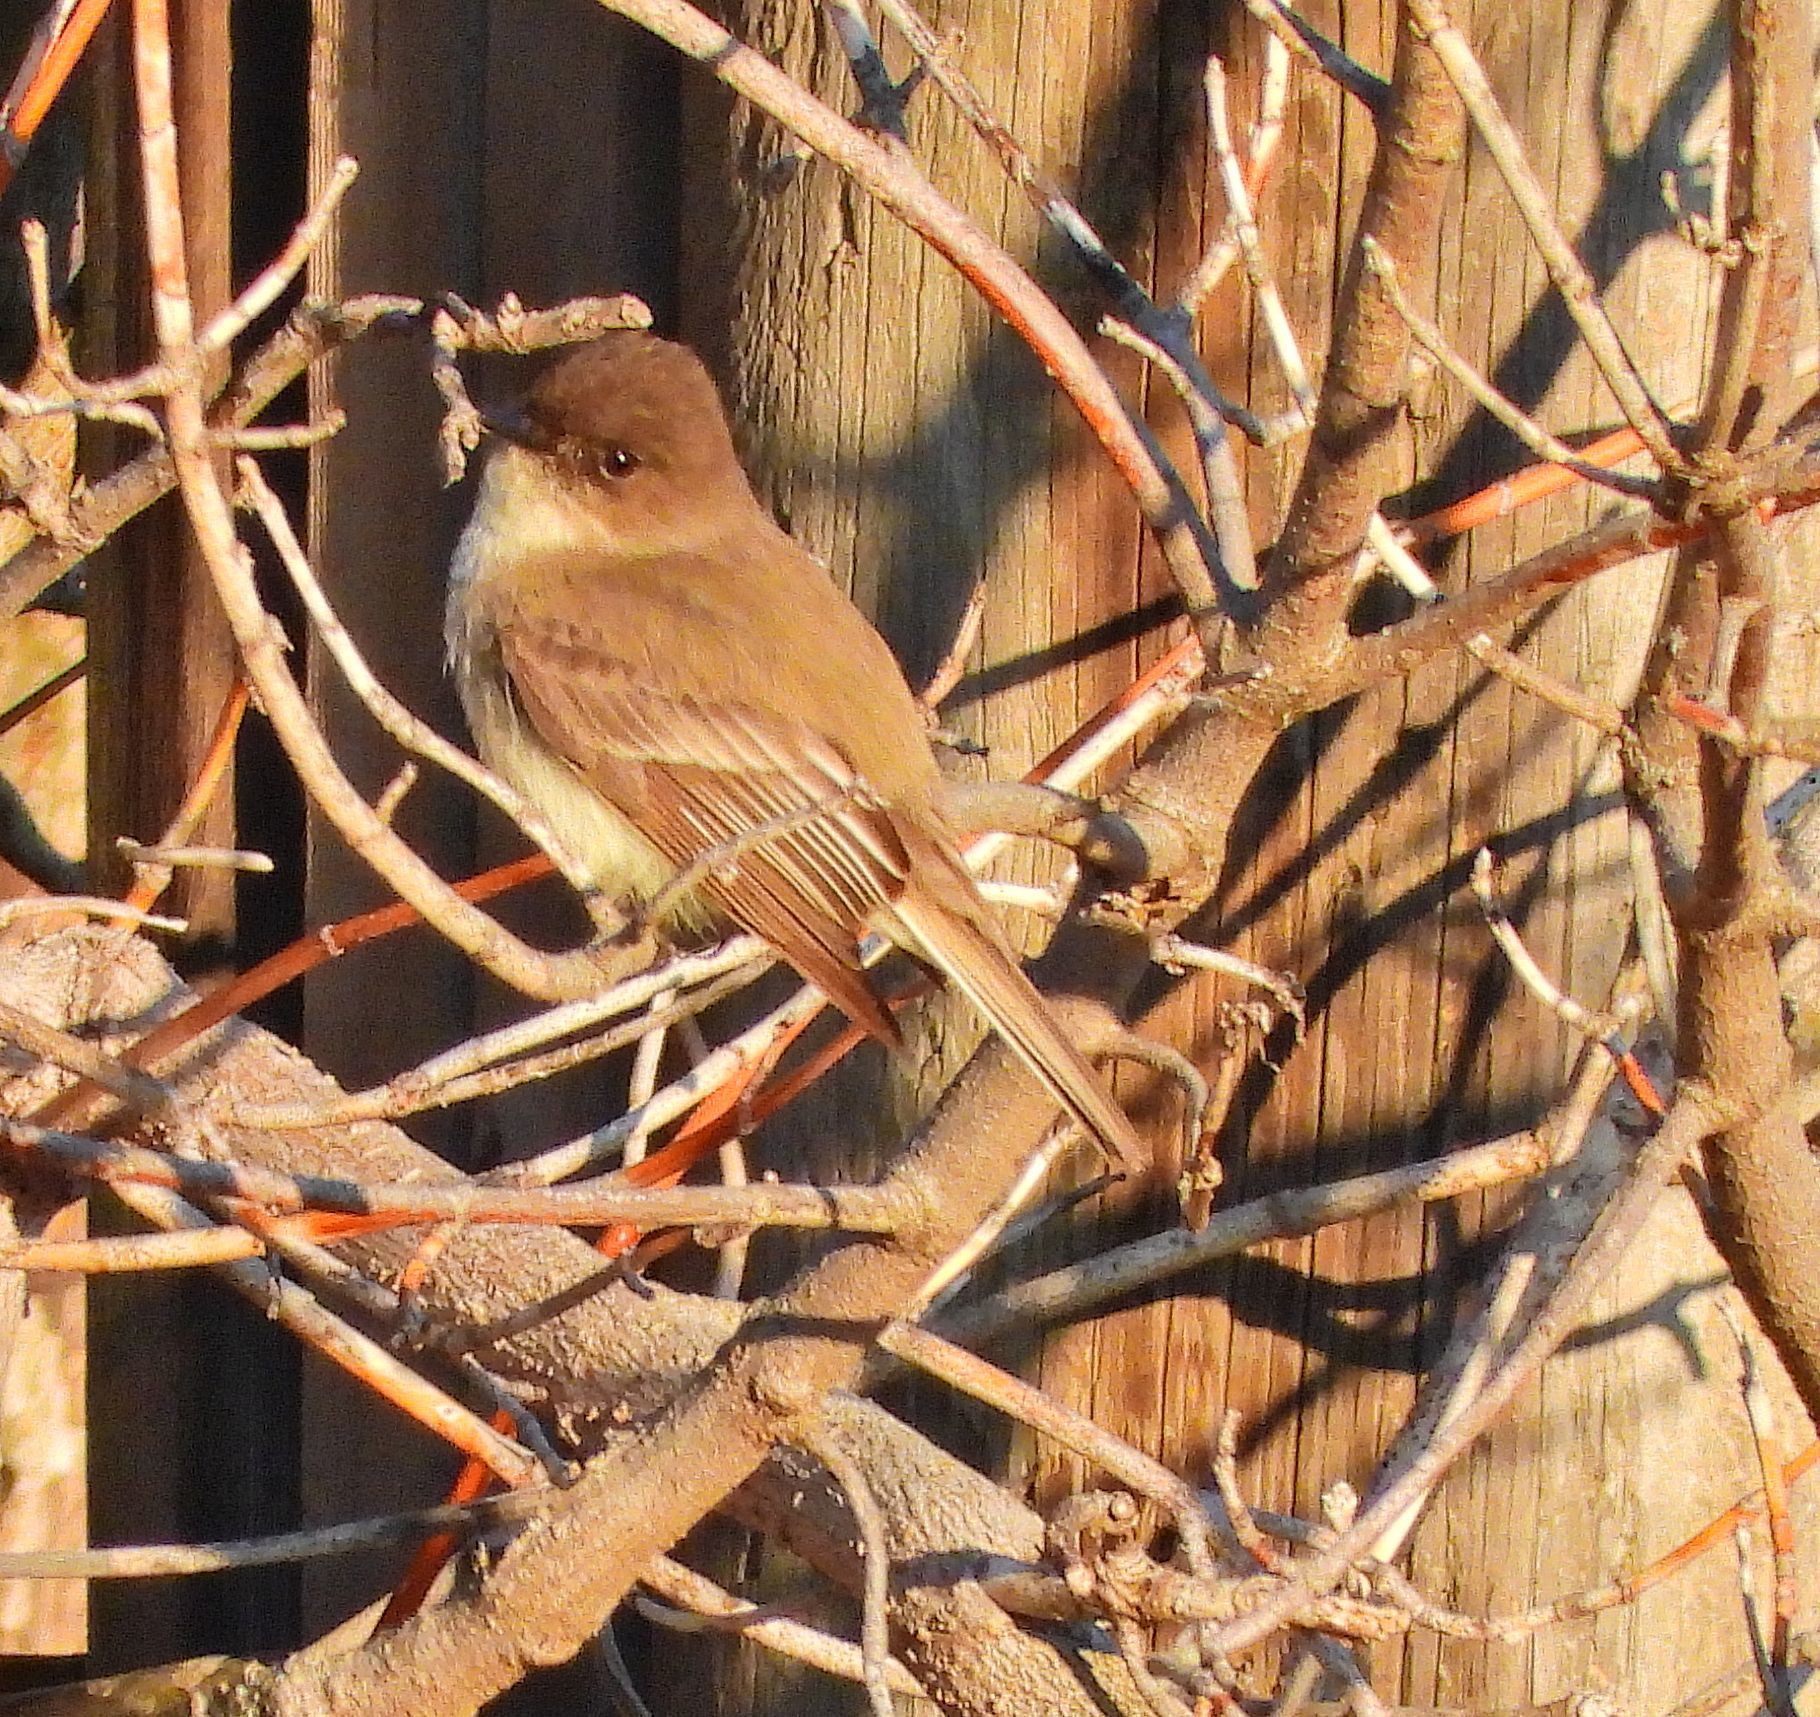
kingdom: Animalia
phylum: Chordata
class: Aves
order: Passeriformes
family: Tyrannidae
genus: Sayornis
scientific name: Sayornis phoebe
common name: Eastern phoebe
